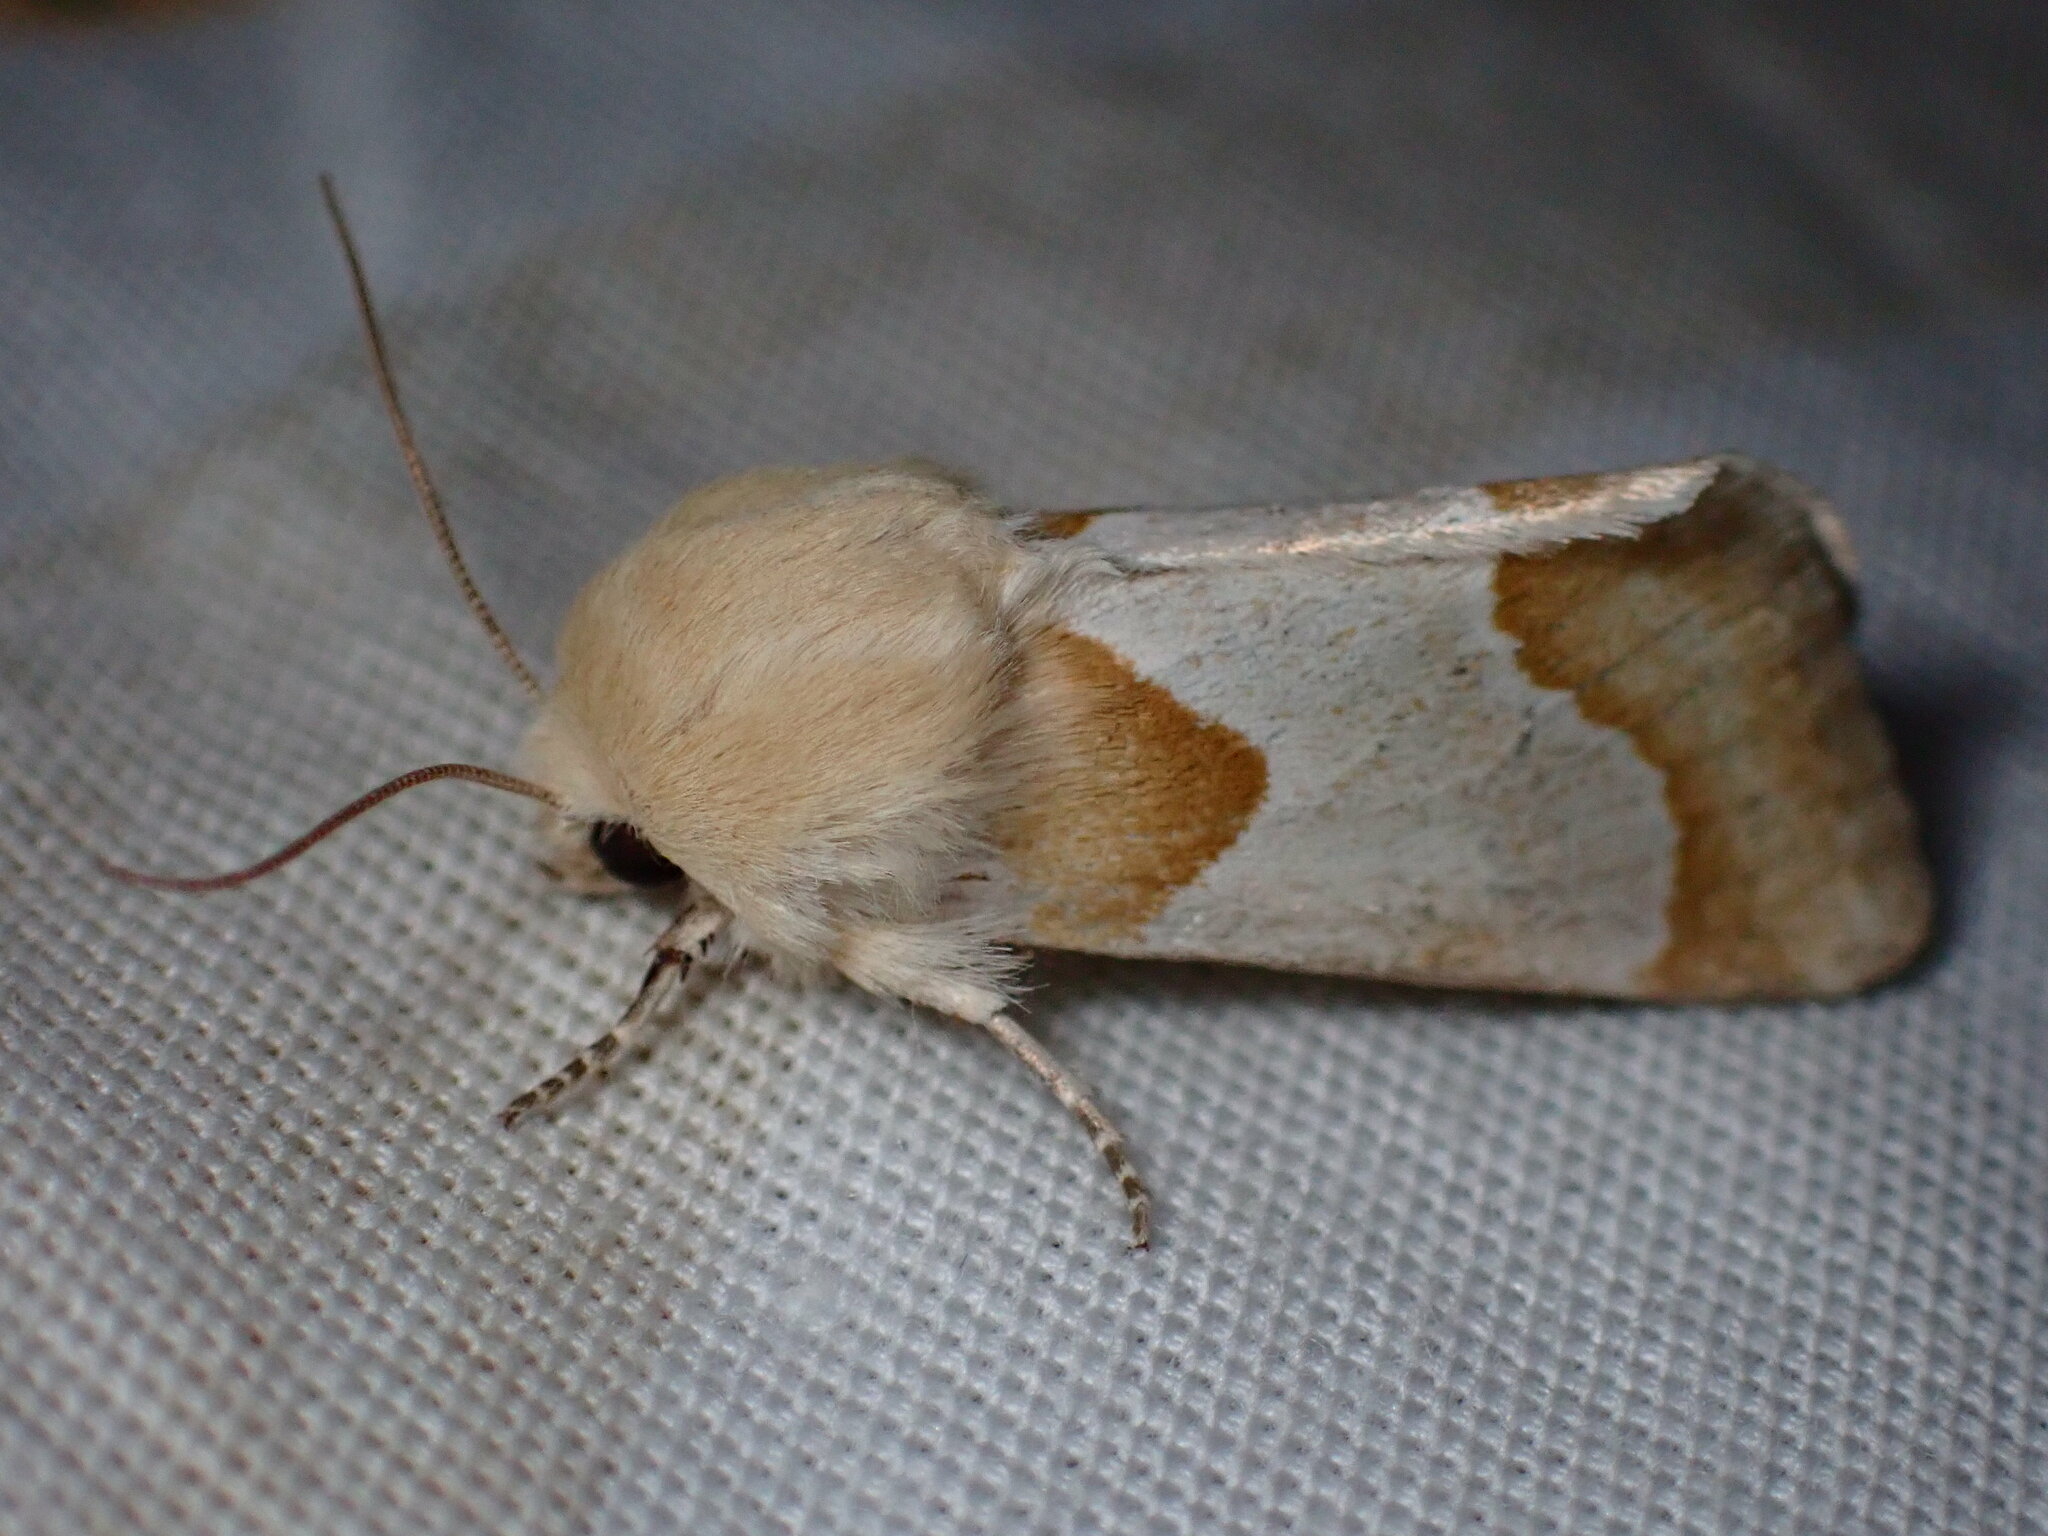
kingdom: Animalia
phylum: Arthropoda
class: Insecta
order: Lepidoptera
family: Noctuidae
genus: Schinia
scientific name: Schinia ligeae
